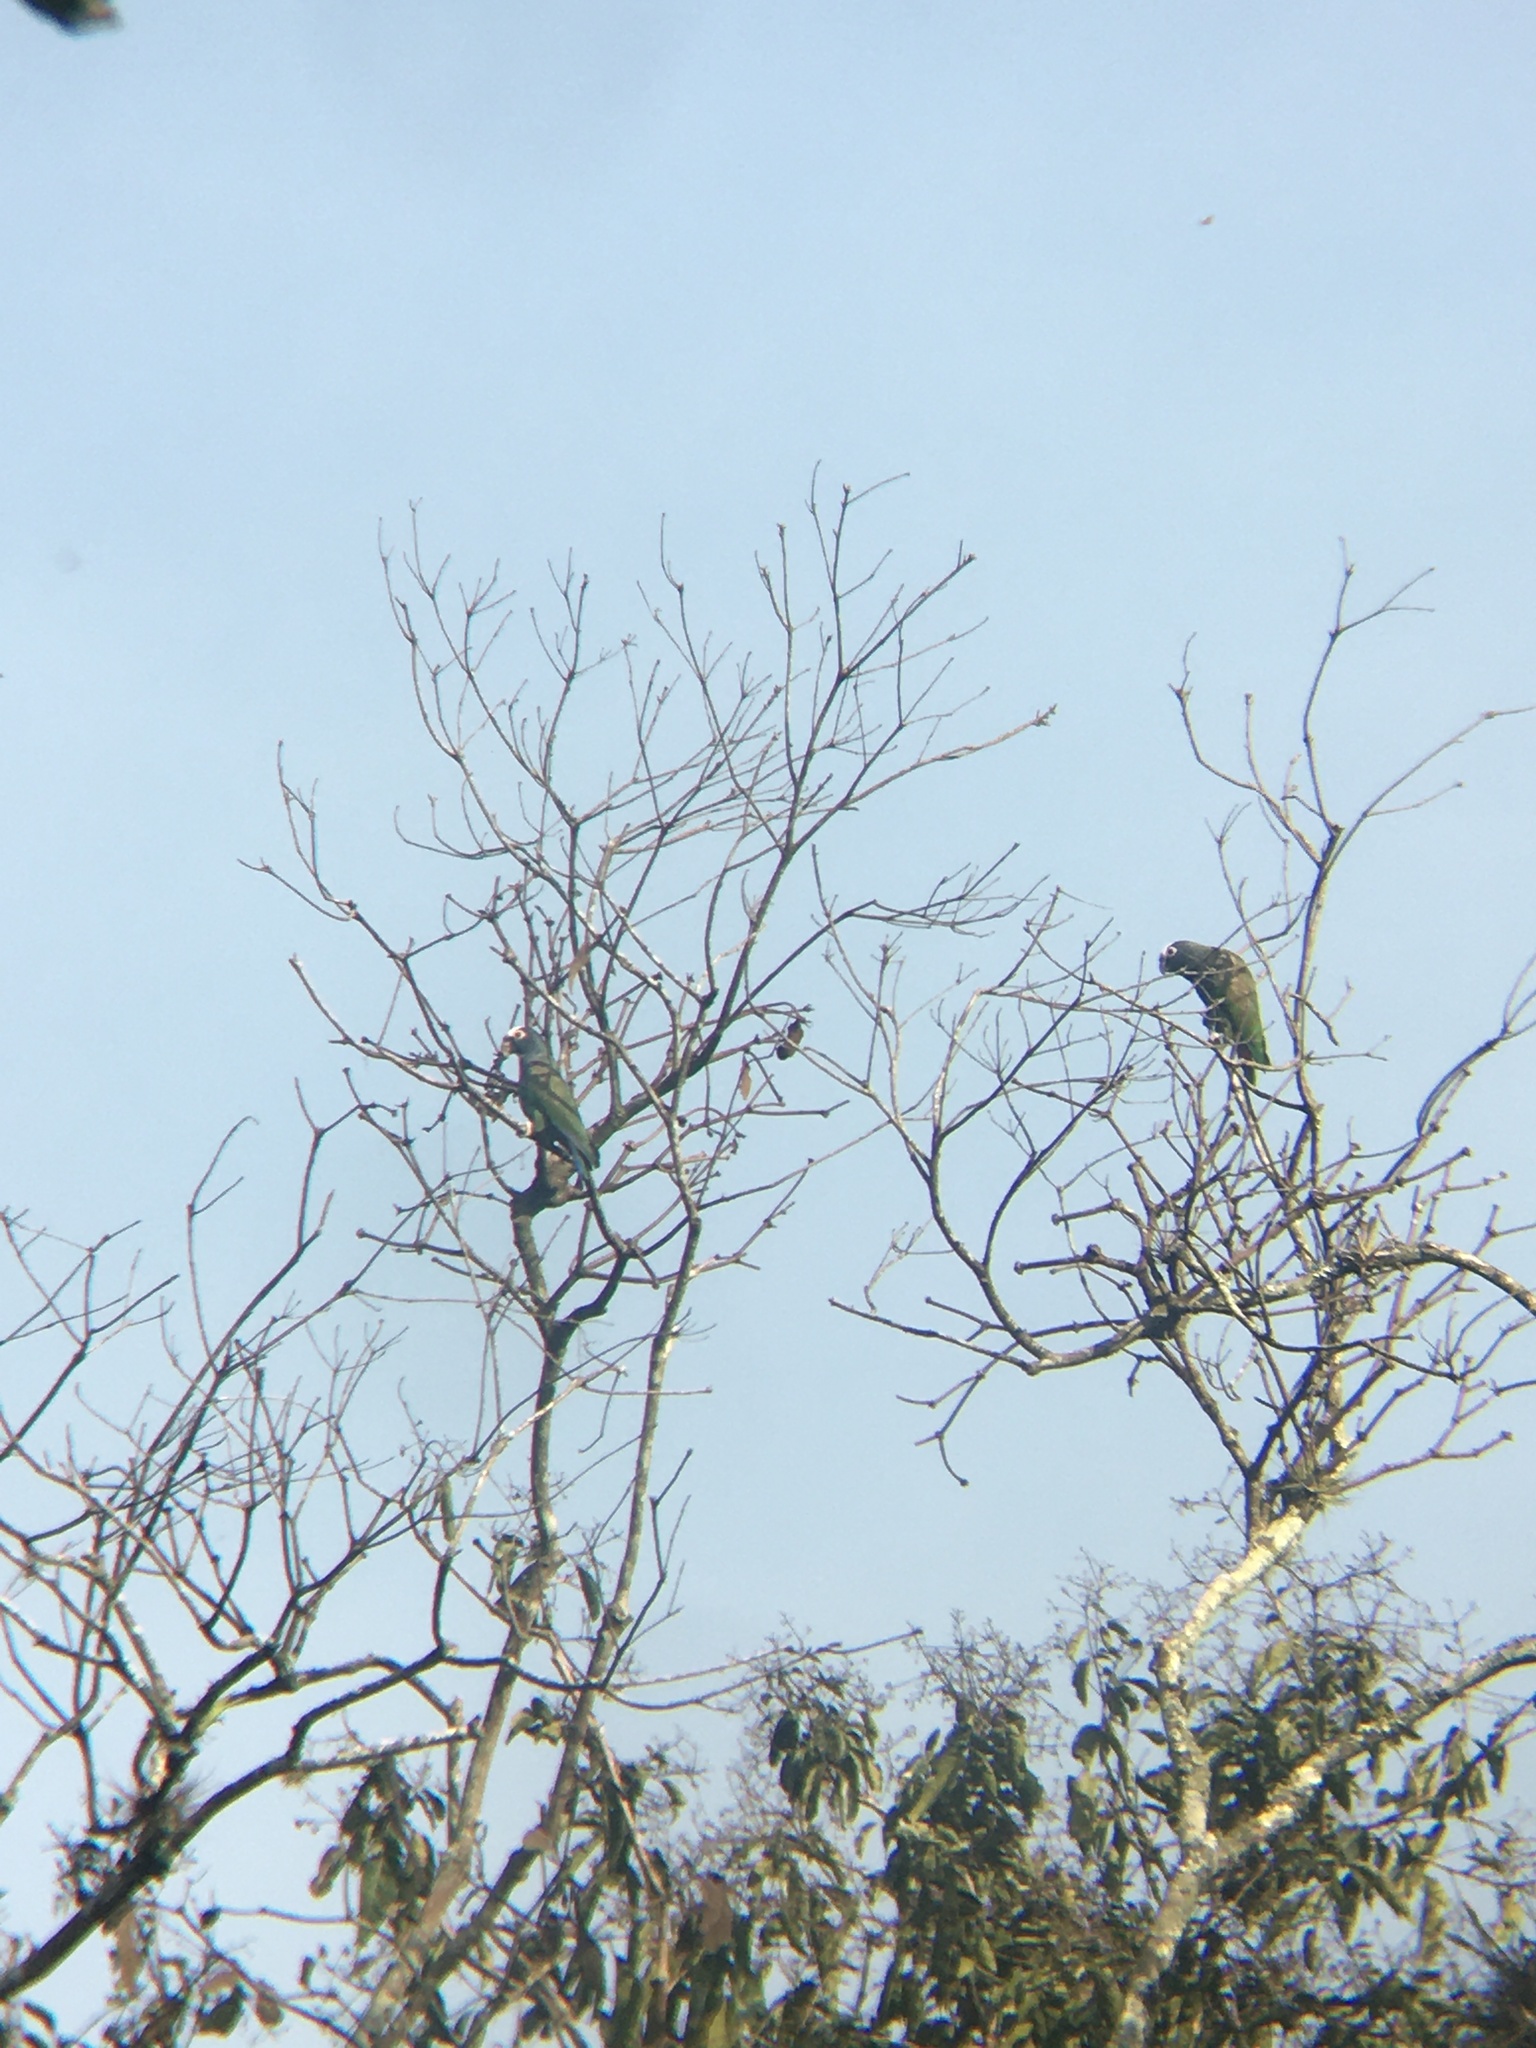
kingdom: Animalia
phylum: Chordata
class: Aves
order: Psittaciformes
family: Psittacidae
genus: Pionus
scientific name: Pionus senilis
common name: White-crowned parrot
